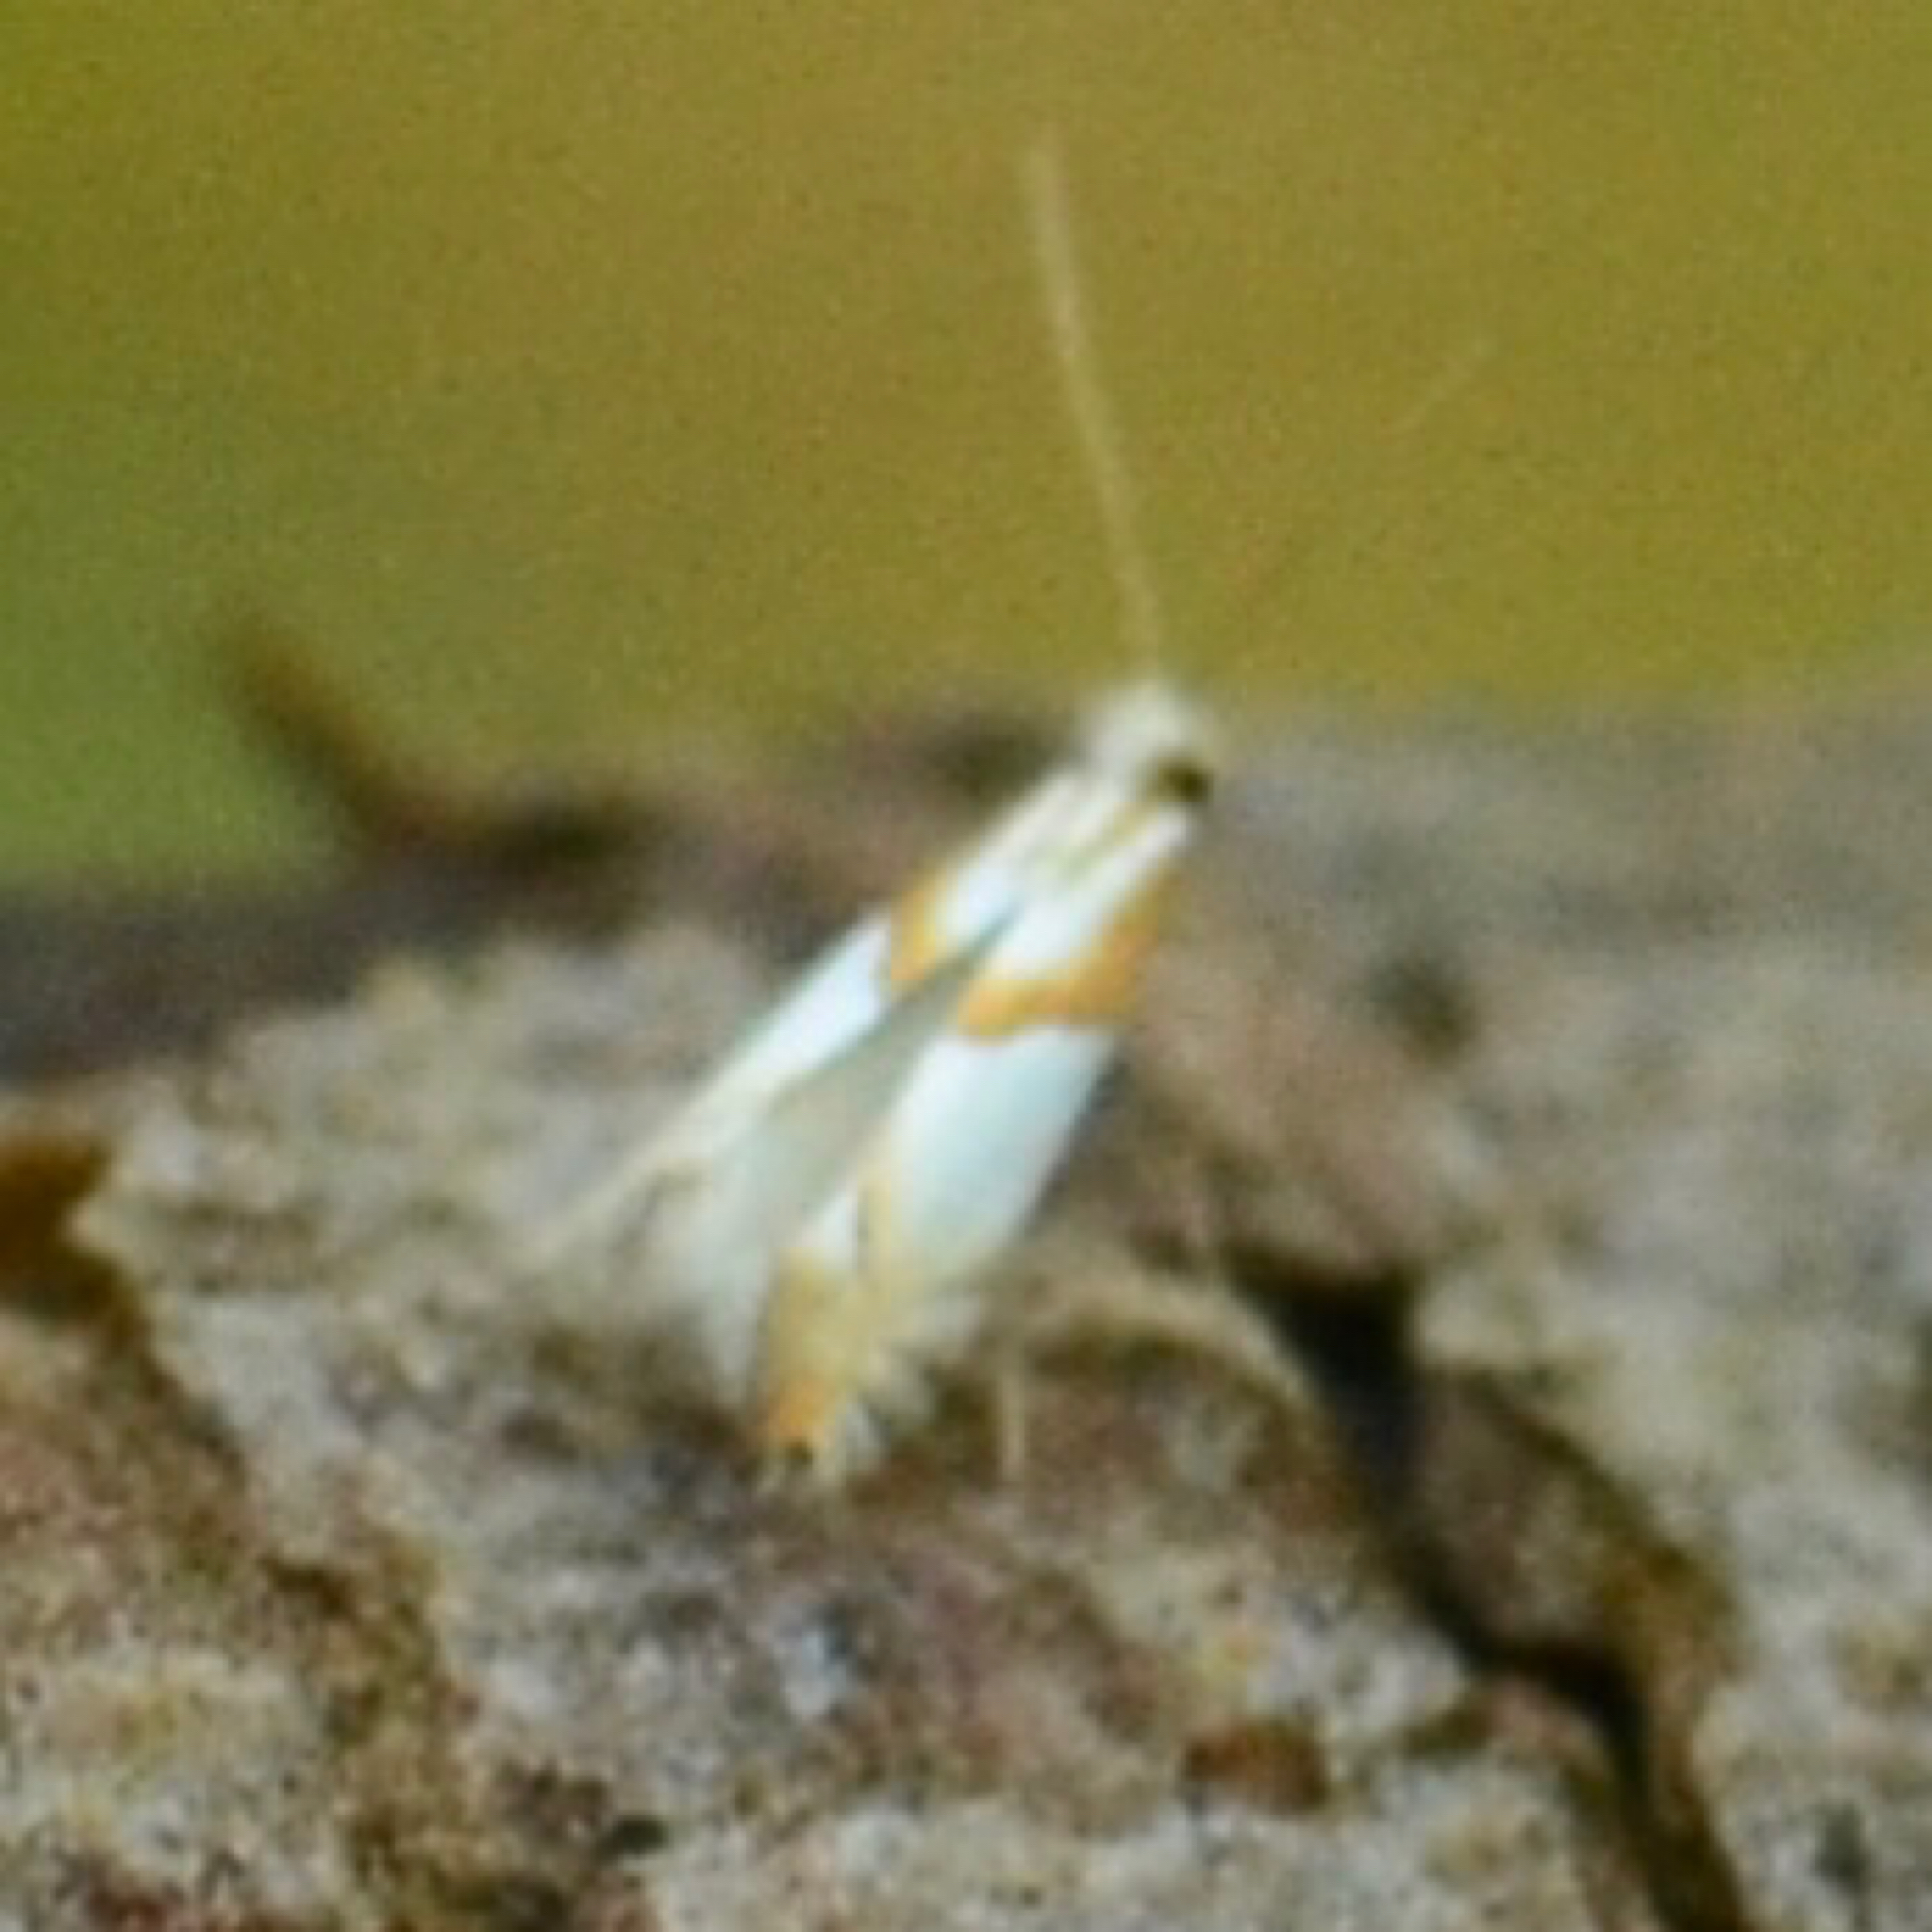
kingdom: Animalia
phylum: Arthropoda
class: Insecta
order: Lepidoptera
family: Gracillariidae
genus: Phyllonorycter
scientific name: Phyllonorycter roboris
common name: Gold-bent midget
